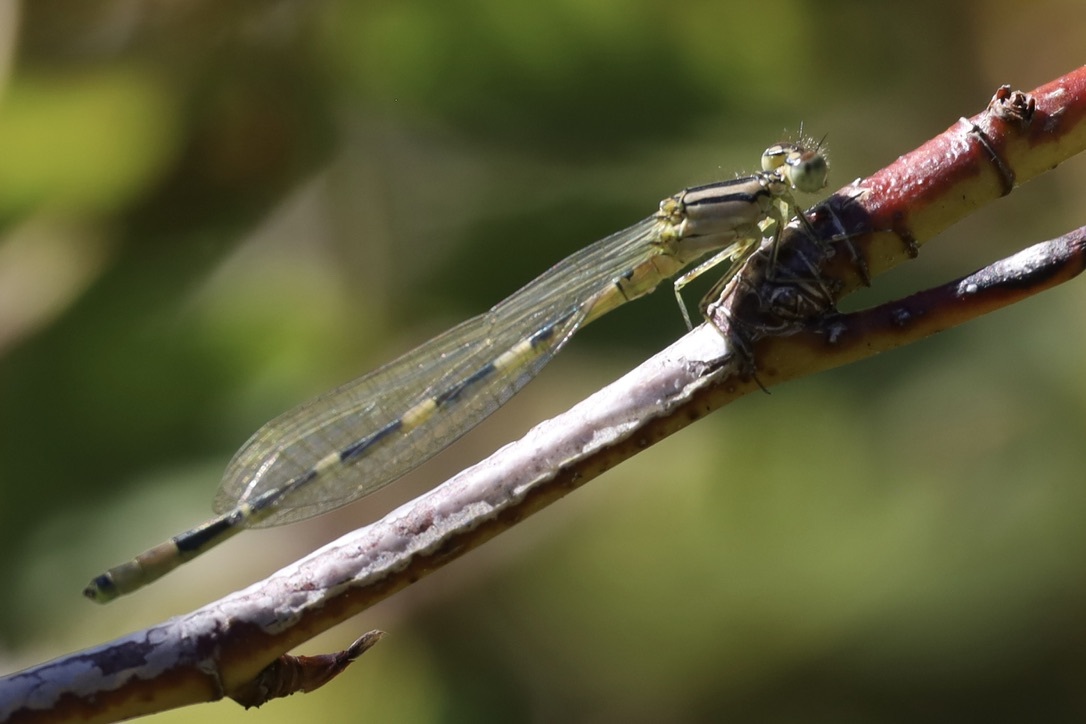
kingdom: Animalia
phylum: Arthropoda
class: Insecta
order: Odonata
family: Coenagrionidae
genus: Enallagma
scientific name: Enallagma carunculatum
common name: Tule bluet
